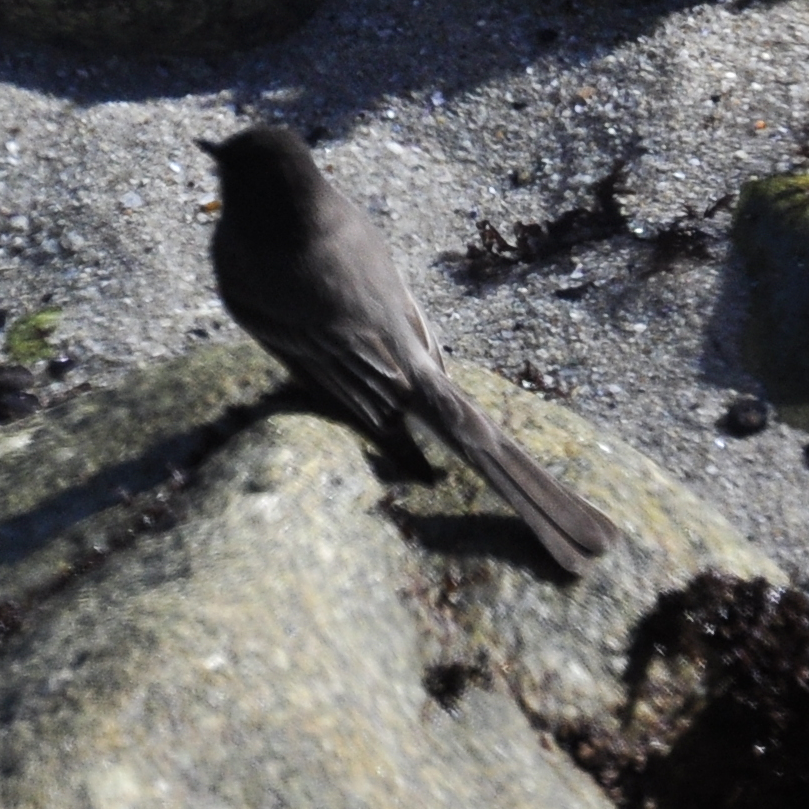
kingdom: Animalia
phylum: Chordata
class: Aves
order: Passeriformes
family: Tyrannidae
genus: Sayornis
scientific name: Sayornis nigricans
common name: Black phoebe
